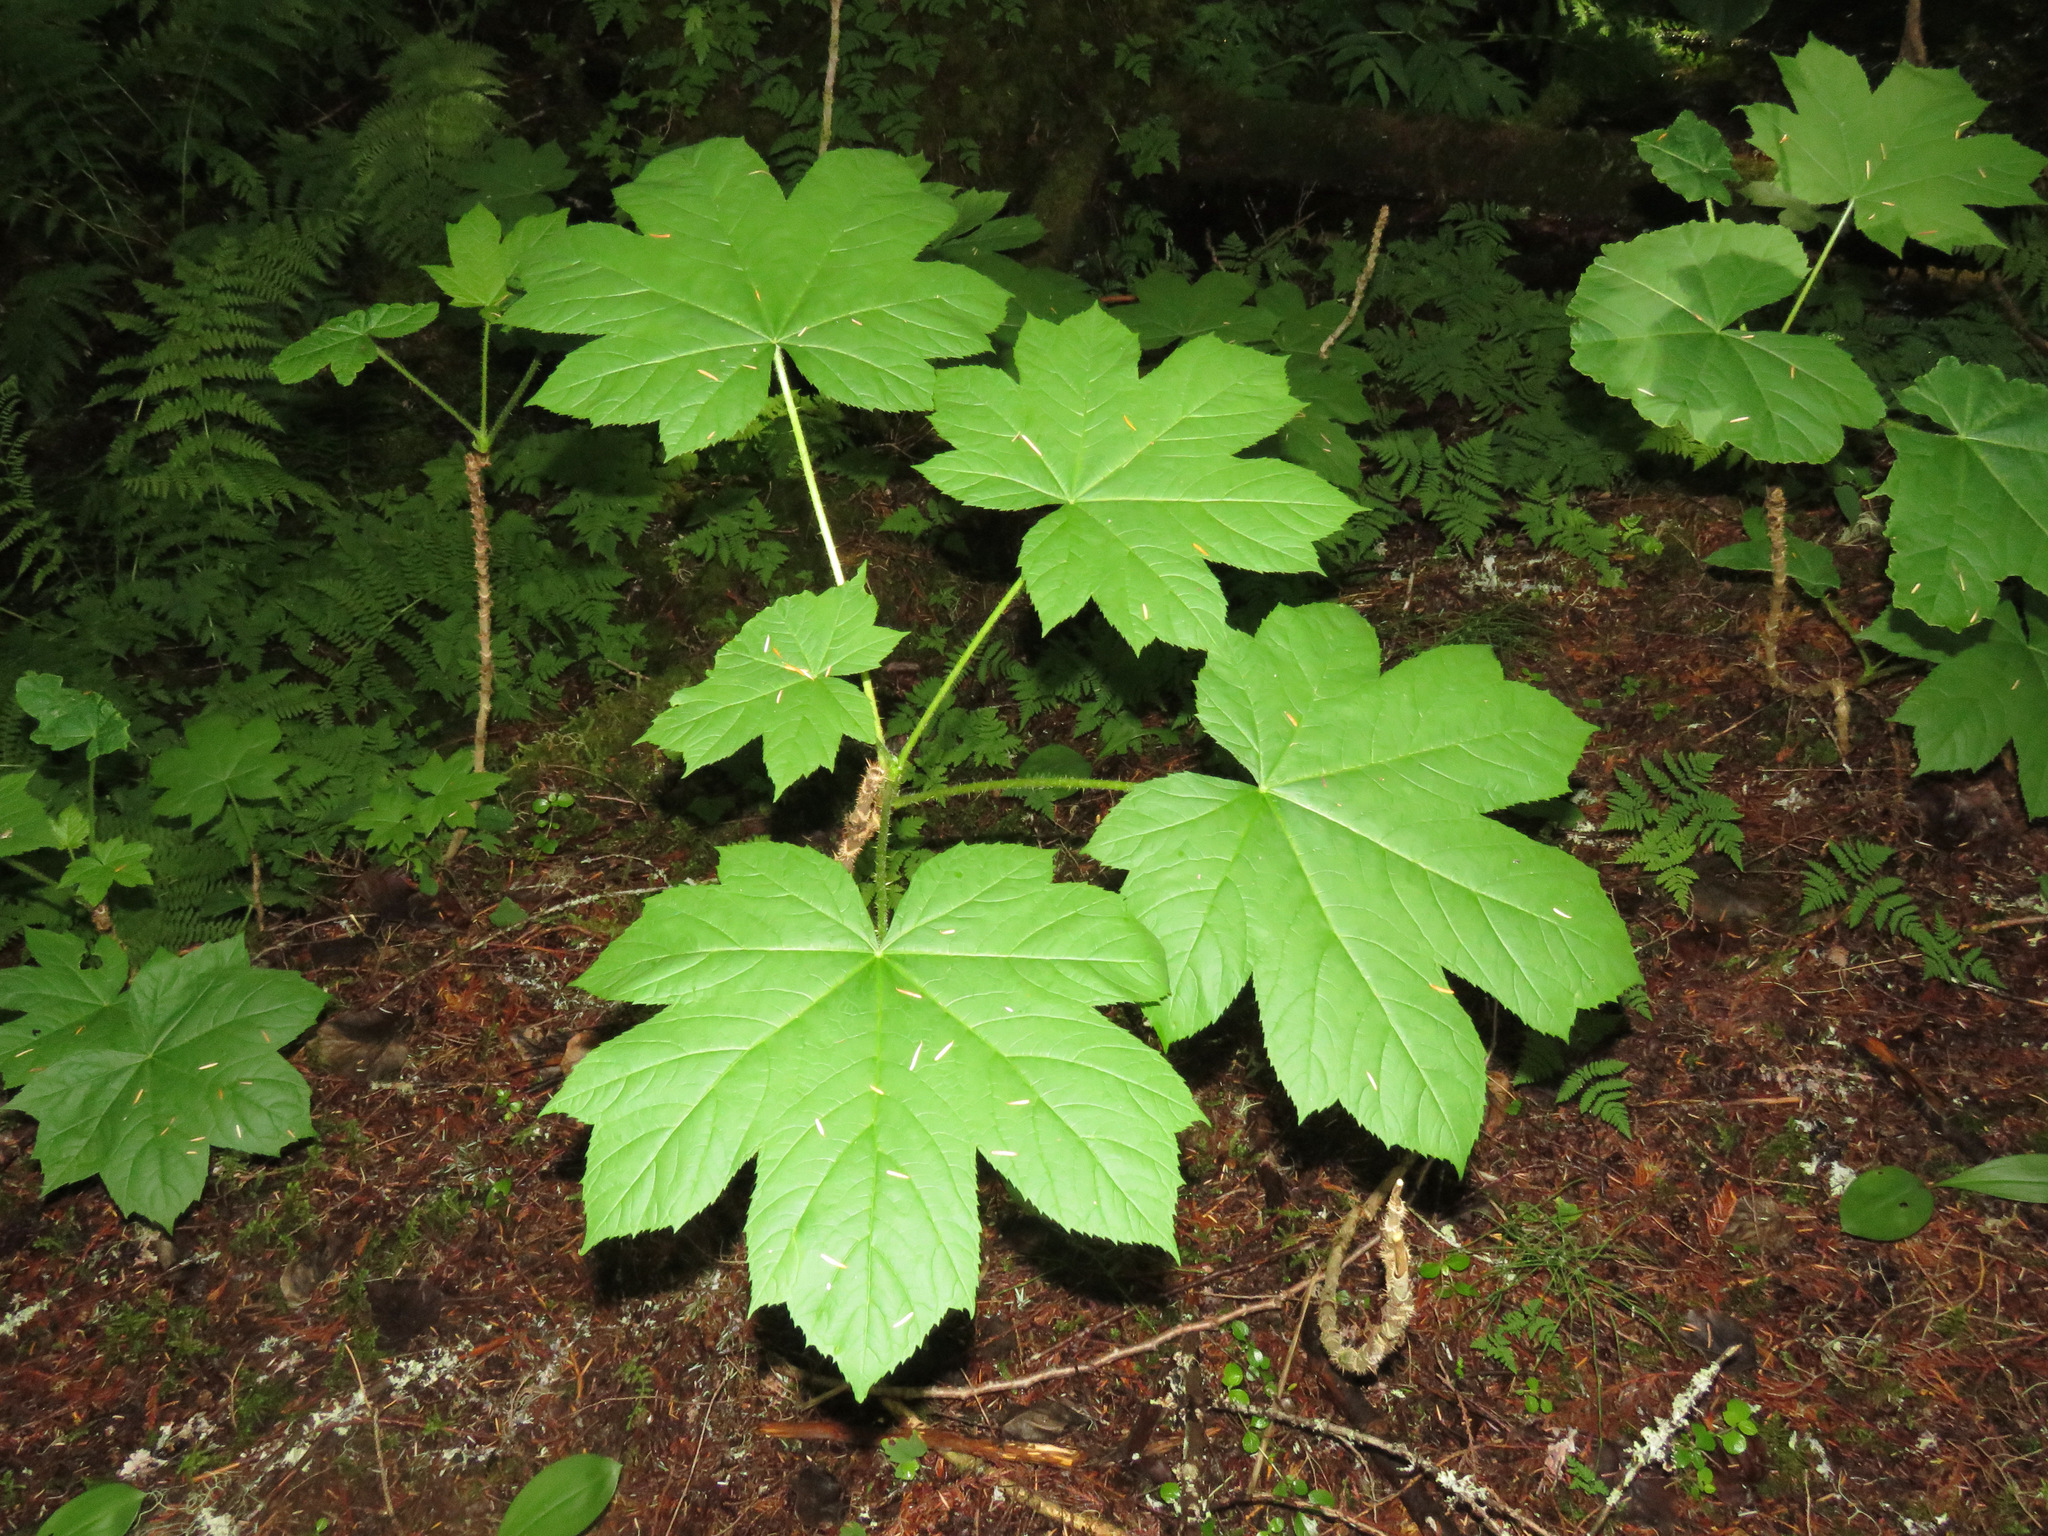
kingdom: Plantae
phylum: Tracheophyta
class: Magnoliopsida
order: Apiales
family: Araliaceae
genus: Oplopanax
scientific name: Oplopanax horridus
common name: Devil's walking-stick
